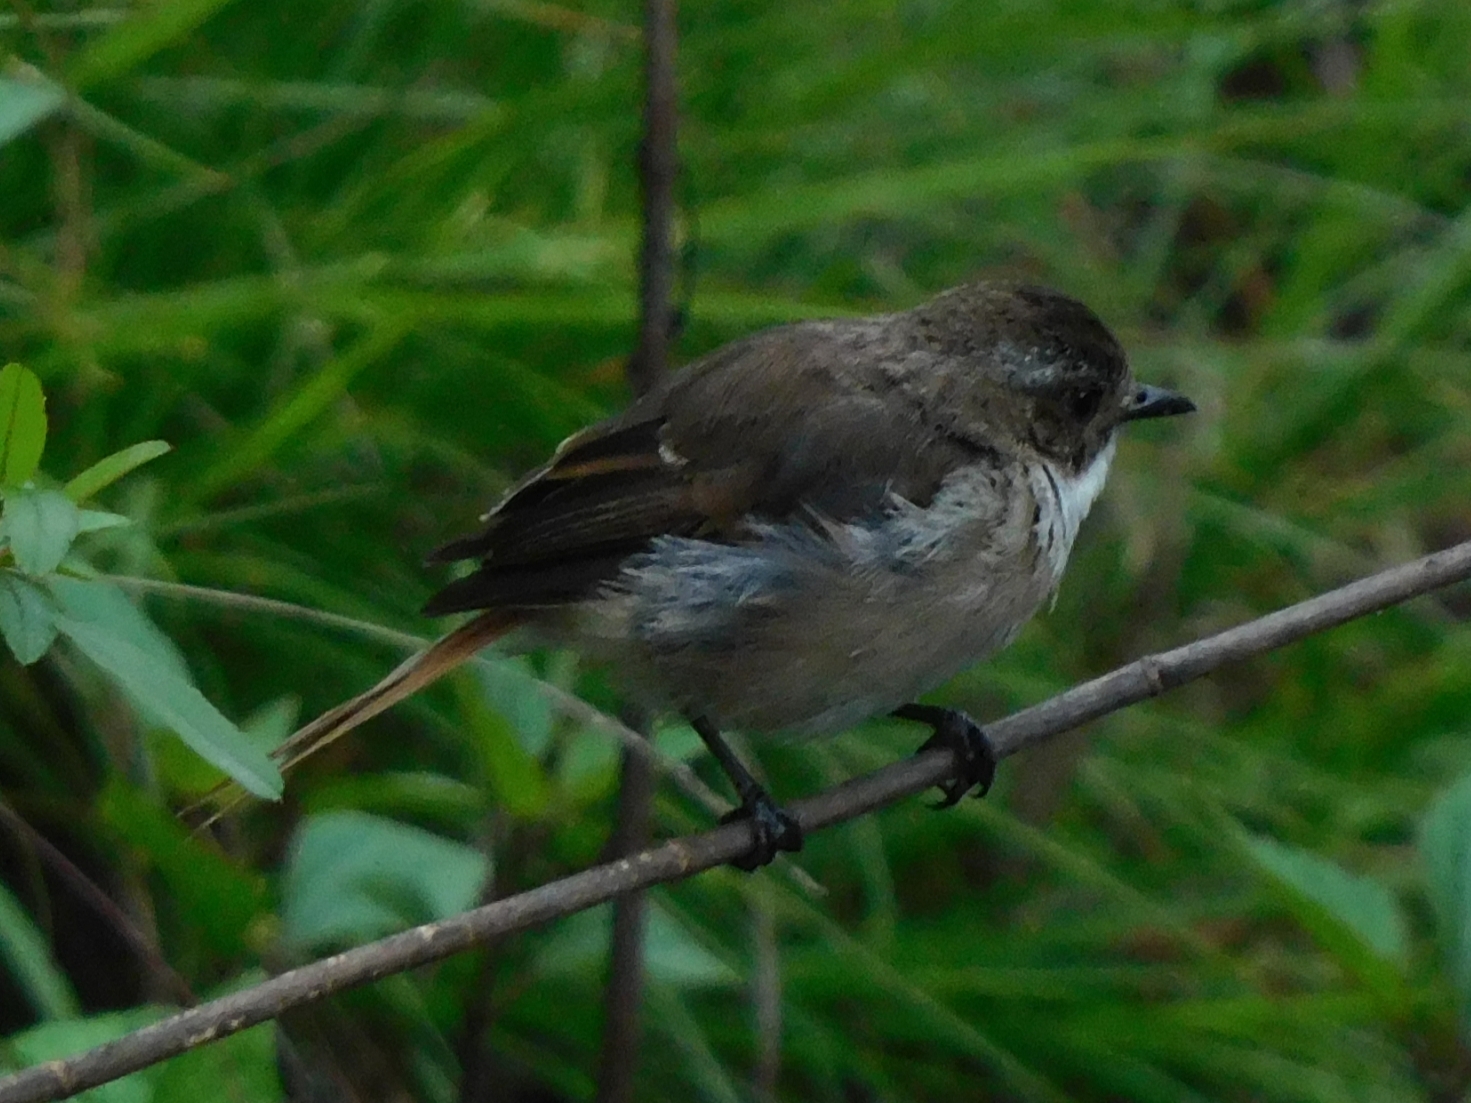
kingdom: Animalia
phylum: Chordata
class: Aves
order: Passeriformes
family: Muscicapidae
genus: Saxicola
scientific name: Saxicola ferreus
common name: Grey bush chat
